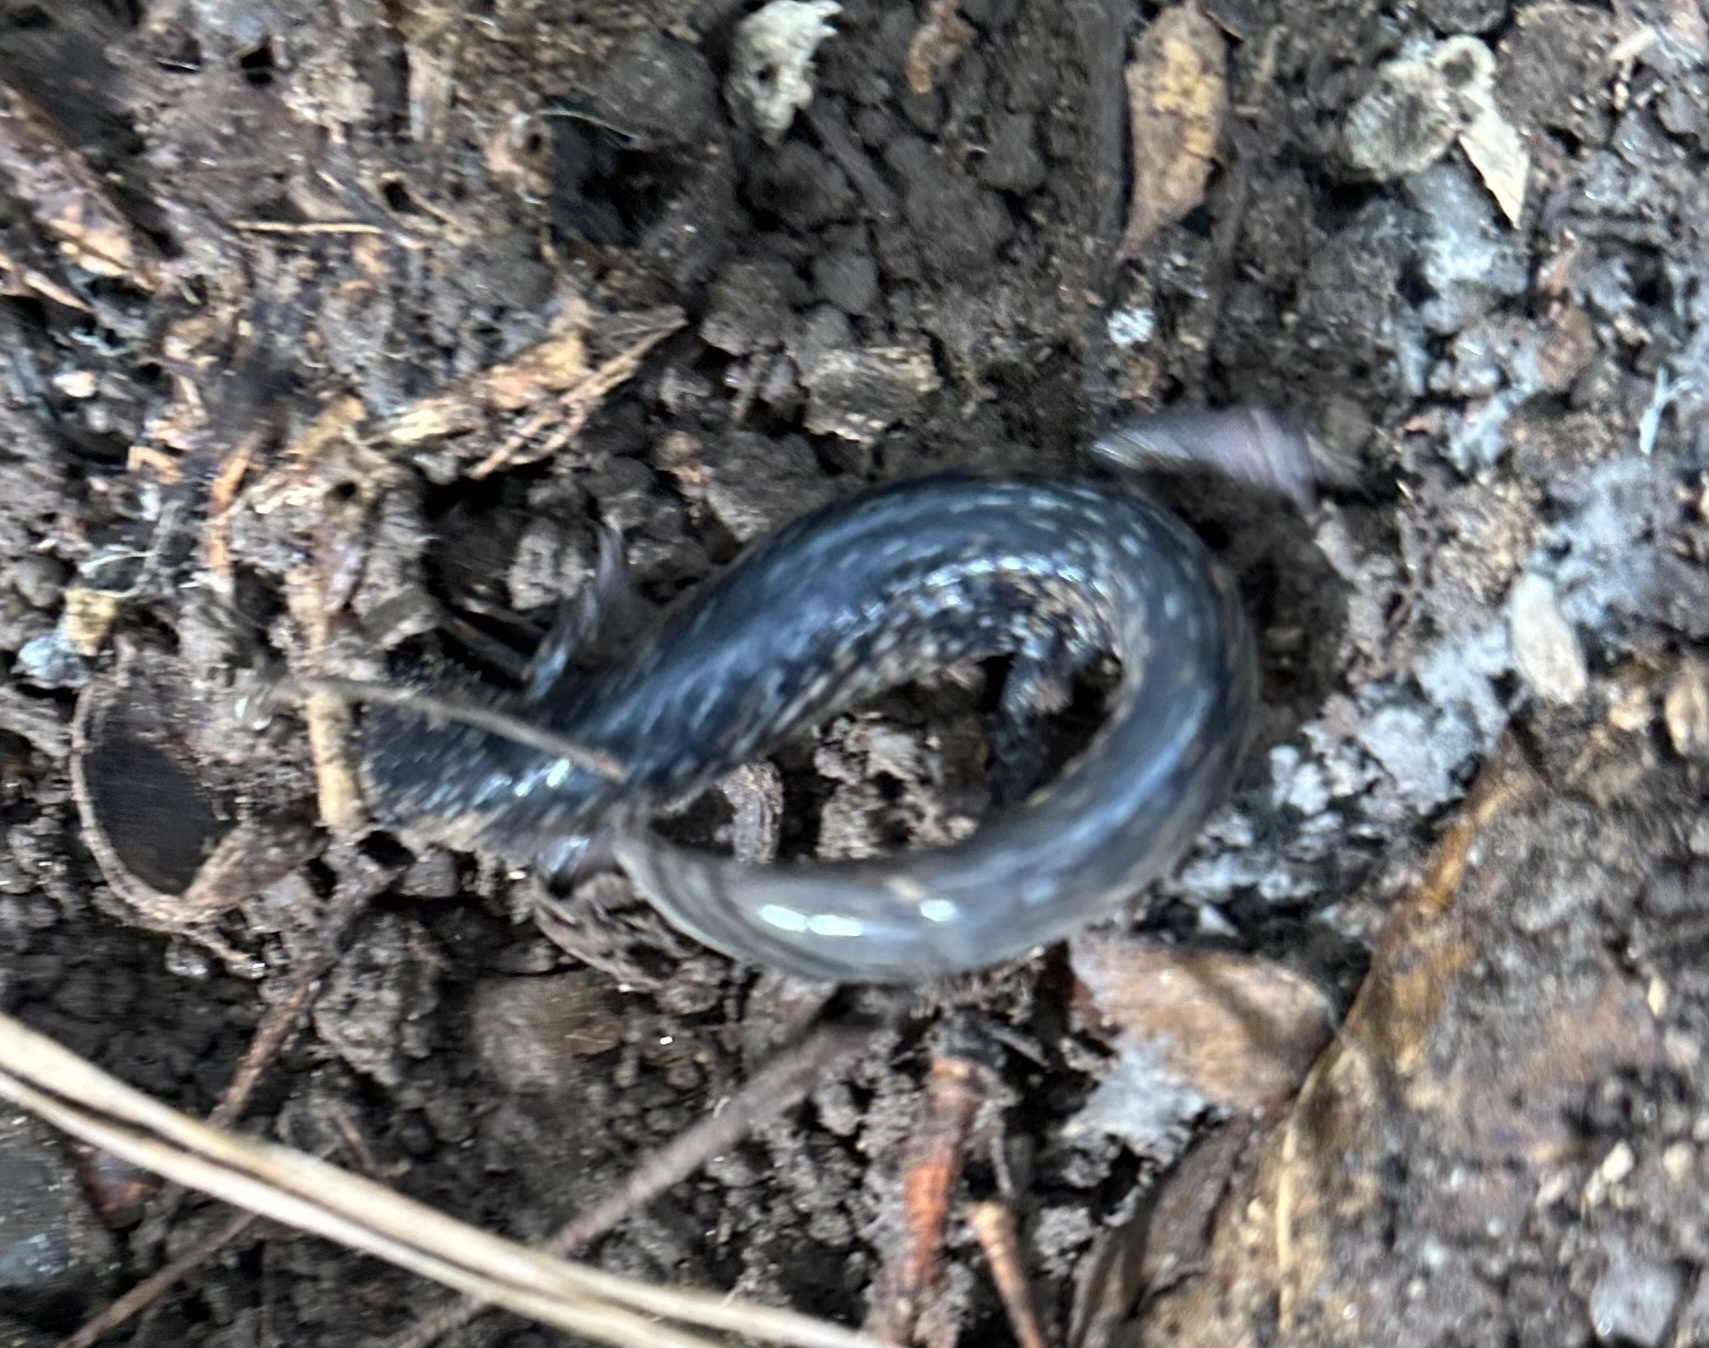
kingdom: Animalia
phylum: Chordata
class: Amphibia
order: Caudata
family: Plethodontidae
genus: Plethodon
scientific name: Plethodon cylindraceus
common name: White-spotted slimy salamander
